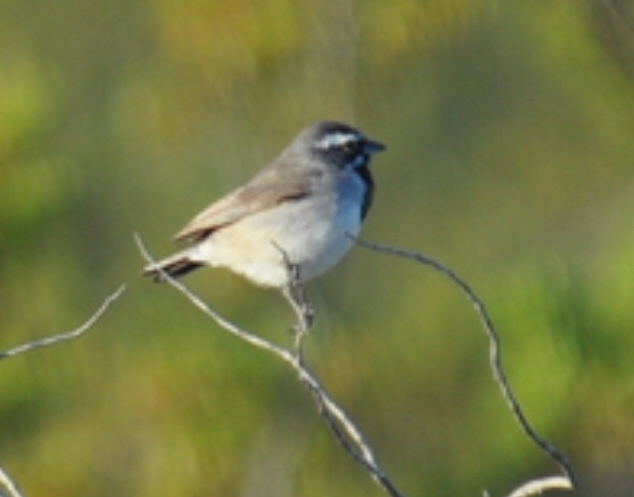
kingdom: Animalia
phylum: Chordata
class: Aves
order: Passeriformes
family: Passerellidae
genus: Amphispiza
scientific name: Amphispiza bilineata
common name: Black-throated sparrow
